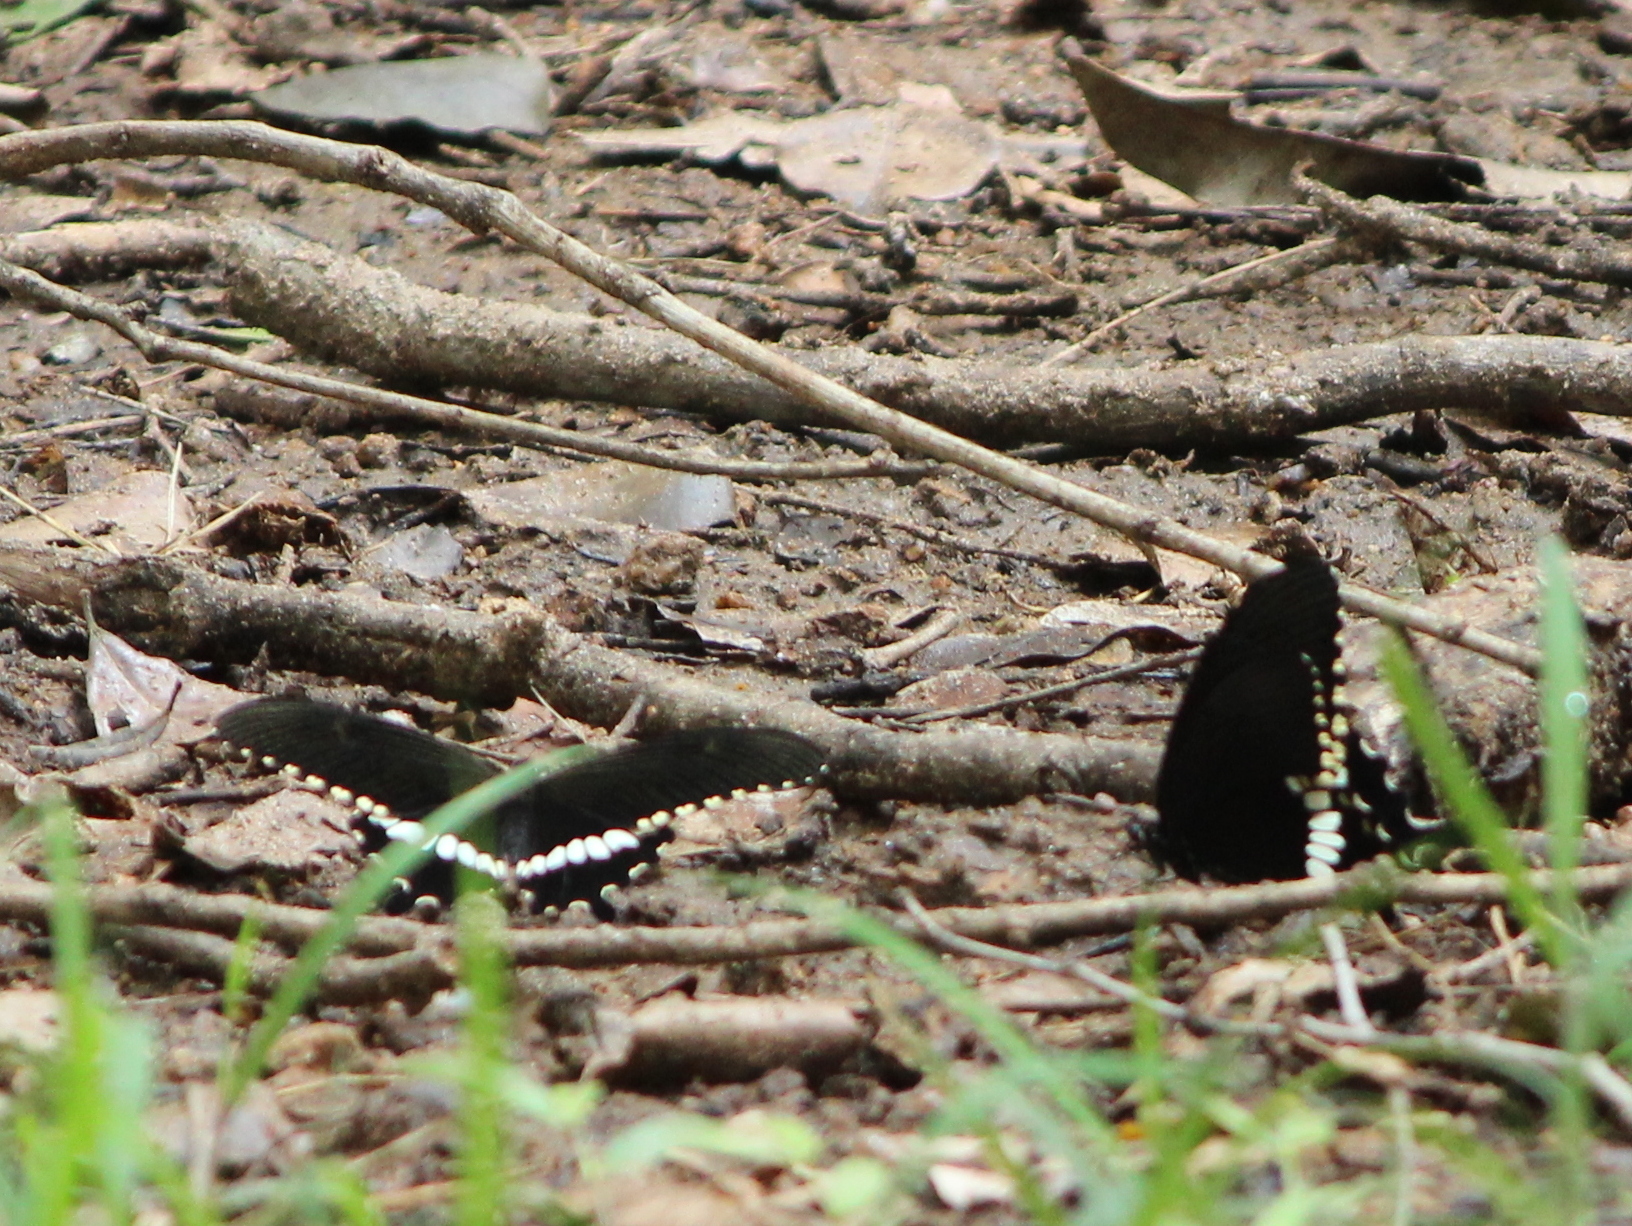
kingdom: Animalia
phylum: Arthropoda
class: Insecta
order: Lepidoptera
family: Papilionidae
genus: Papilio
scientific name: Papilio polytes
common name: Common mormon
